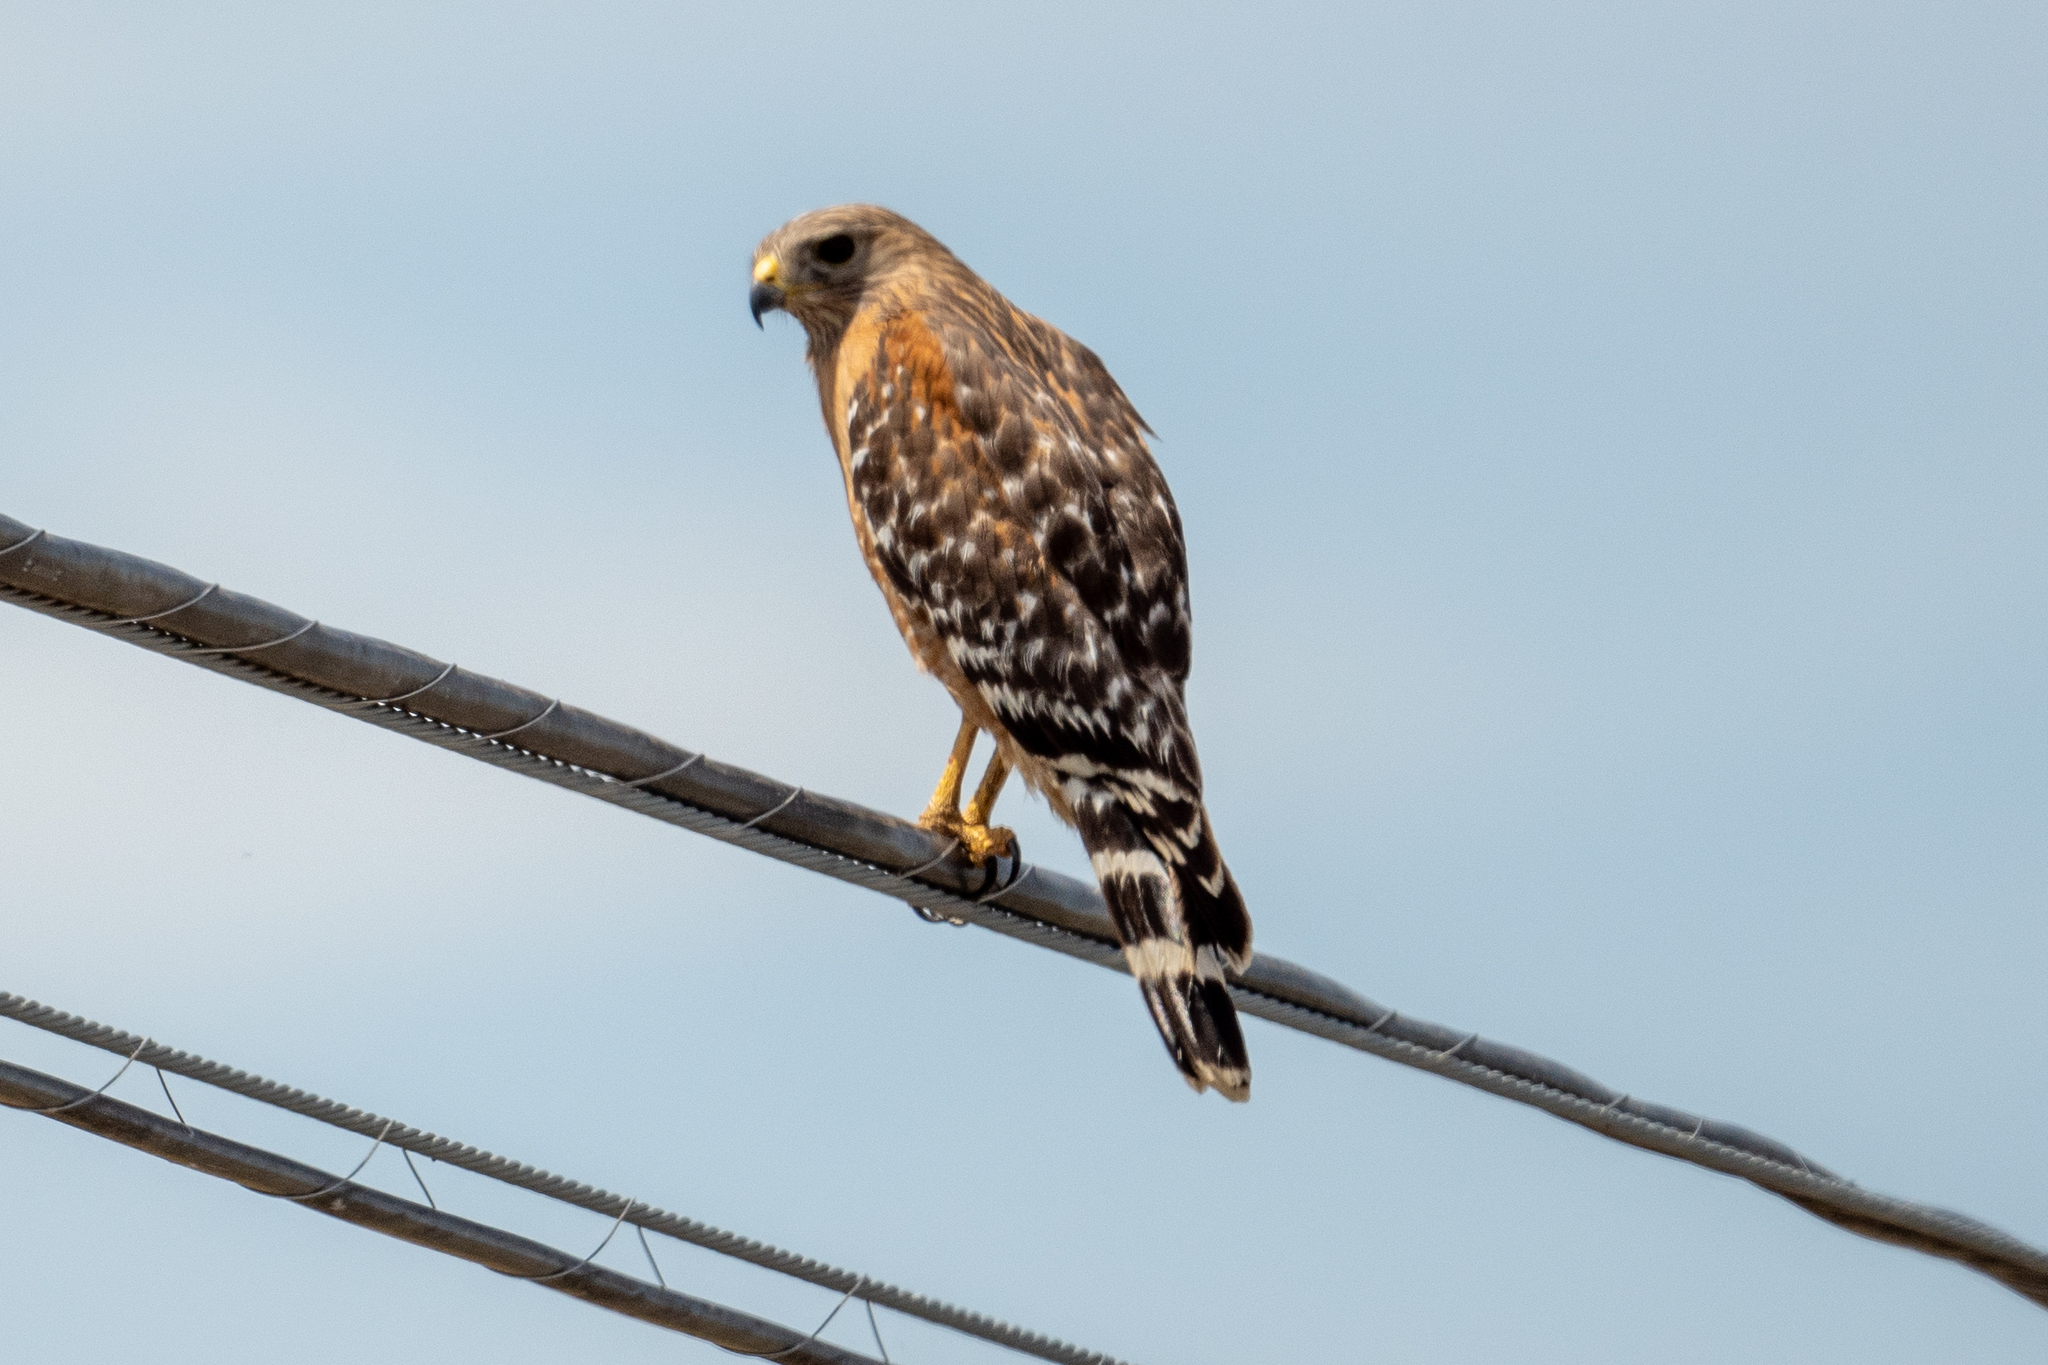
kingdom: Animalia
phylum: Chordata
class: Aves
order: Accipitriformes
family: Accipitridae
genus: Buteo
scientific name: Buteo lineatus
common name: Red-shouldered hawk
